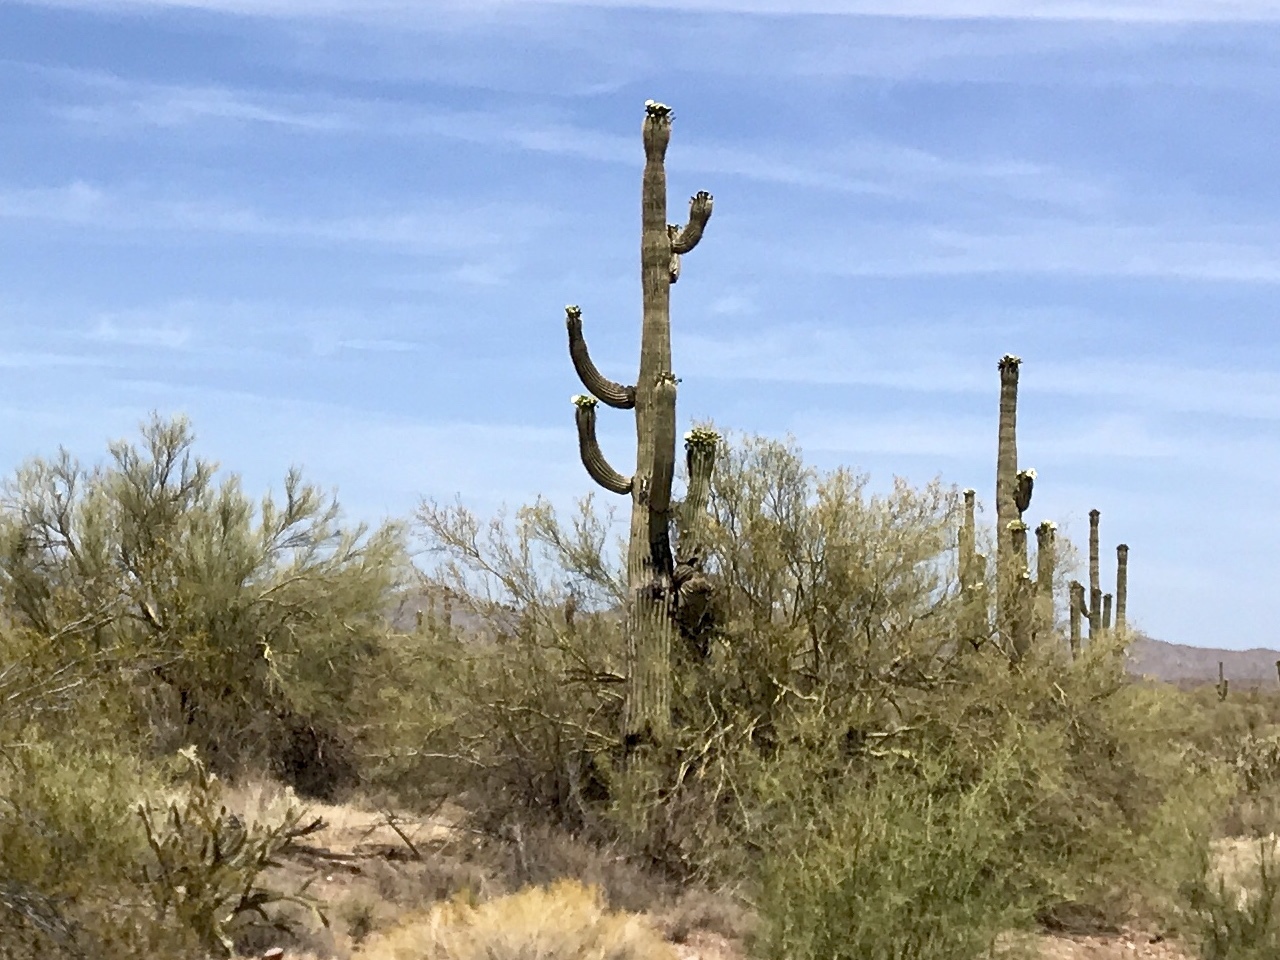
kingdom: Plantae
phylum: Tracheophyta
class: Magnoliopsida
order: Caryophyllales
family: Cactaceae
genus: Carnegiea
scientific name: Carnegiea gigantea
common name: Saguaro
